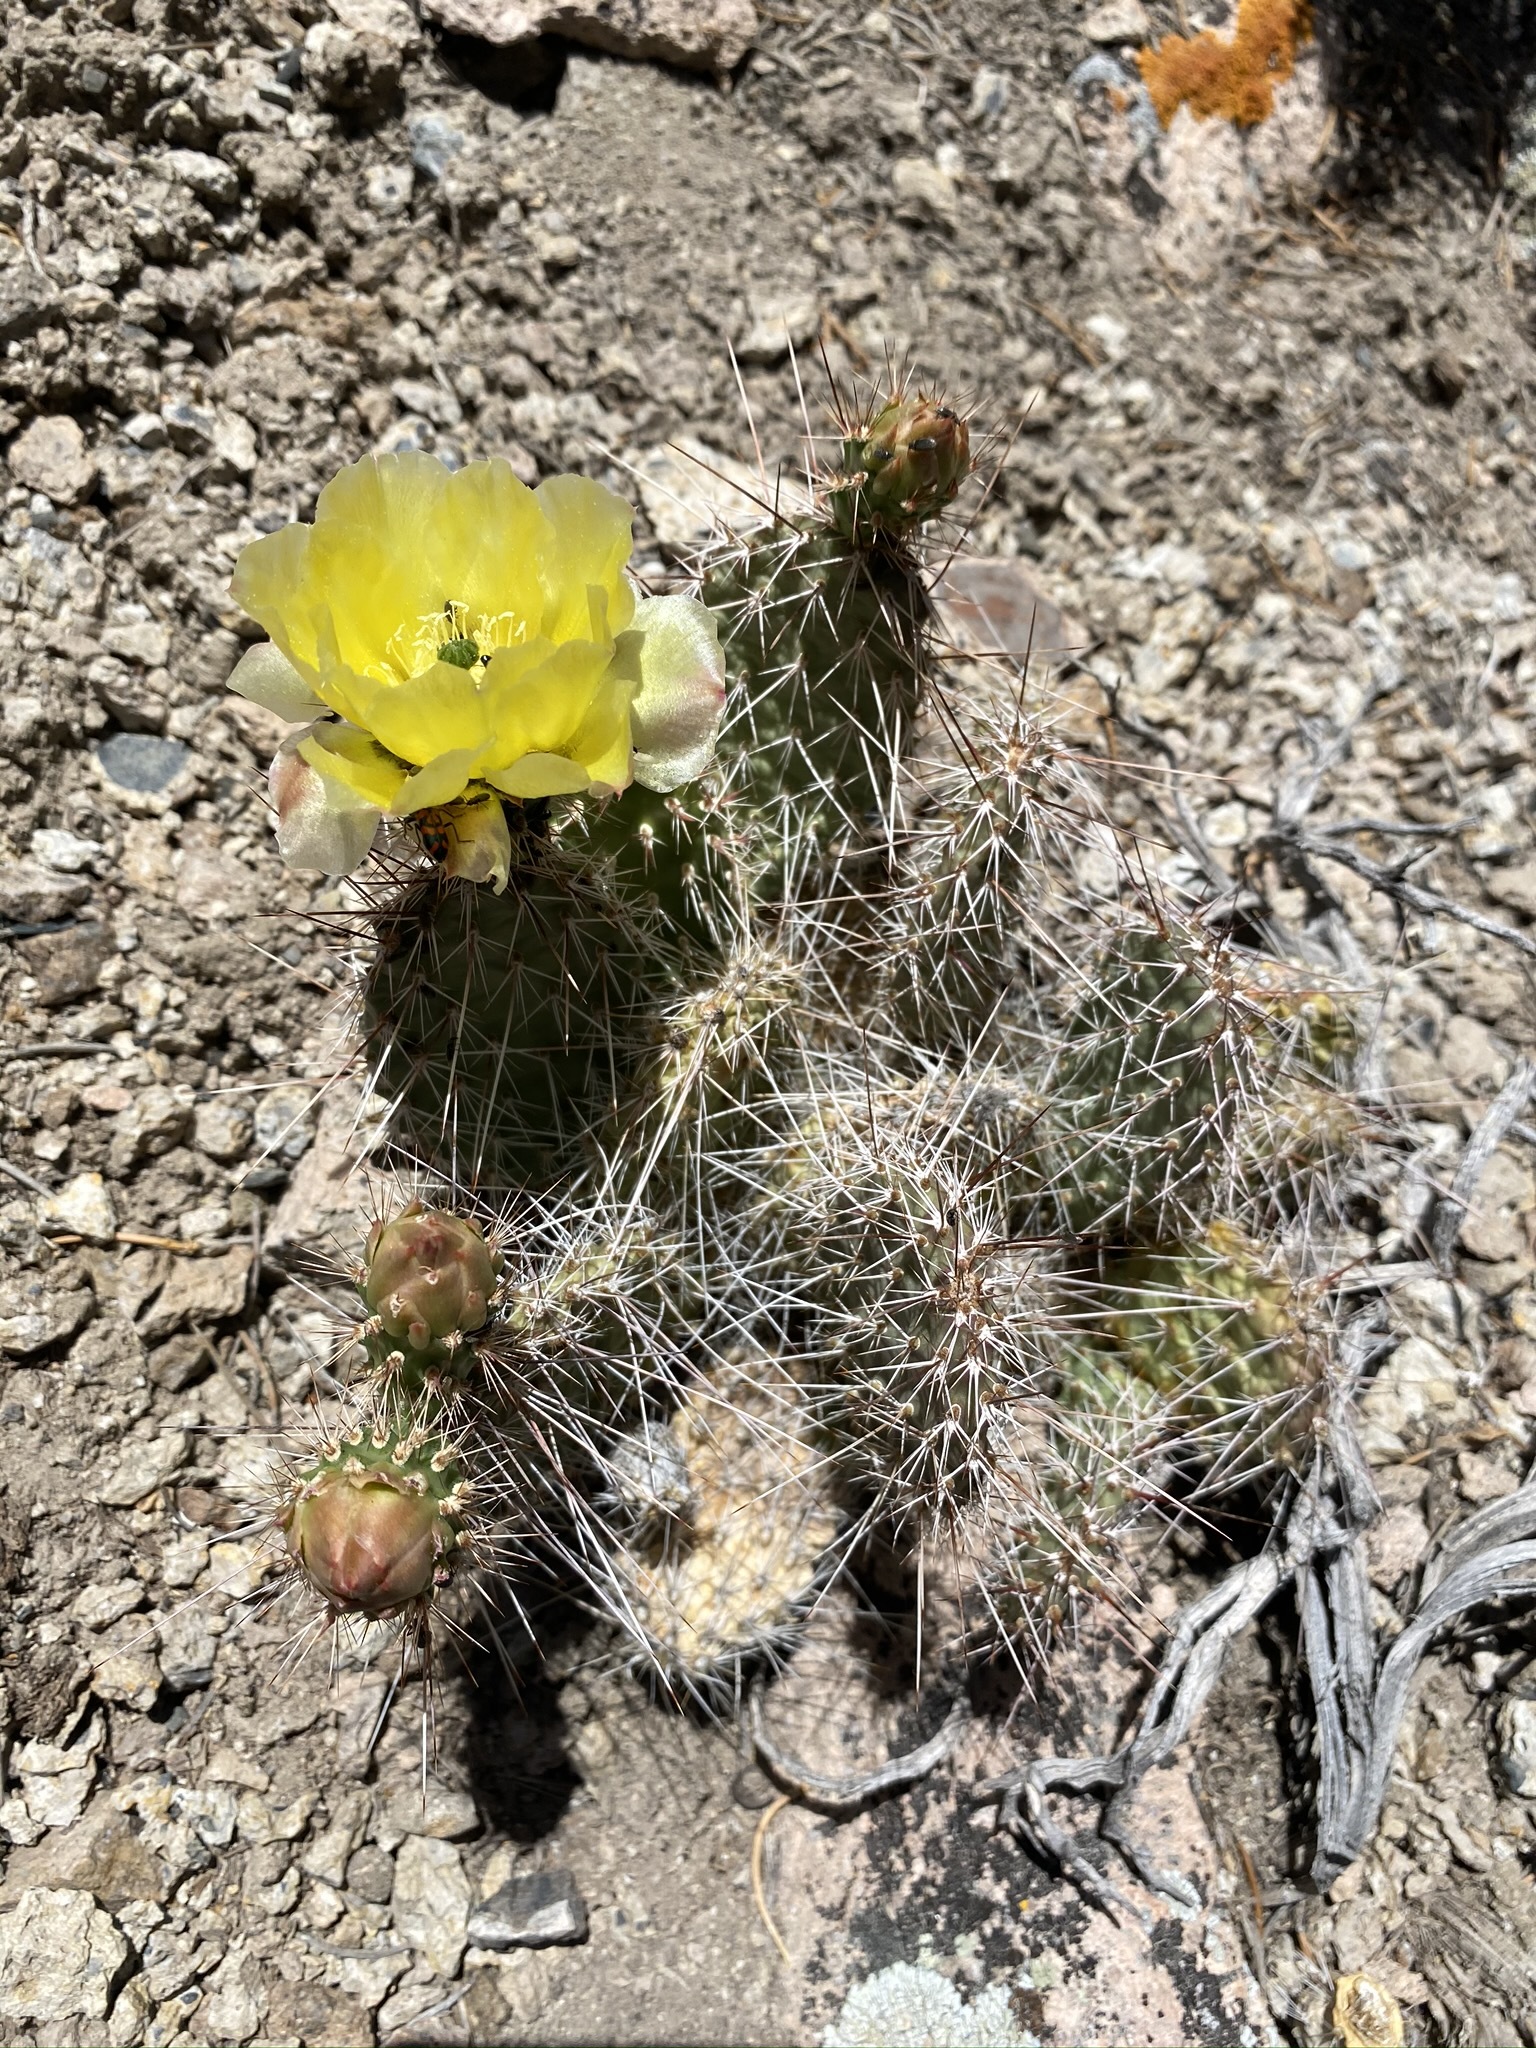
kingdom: Plantae
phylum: Tracheophyta
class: Magnoliopsida
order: Caryophyllales
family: Cactaceae
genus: Opuntia
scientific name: Opuntia polyacantha
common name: Plains prickly-pear
